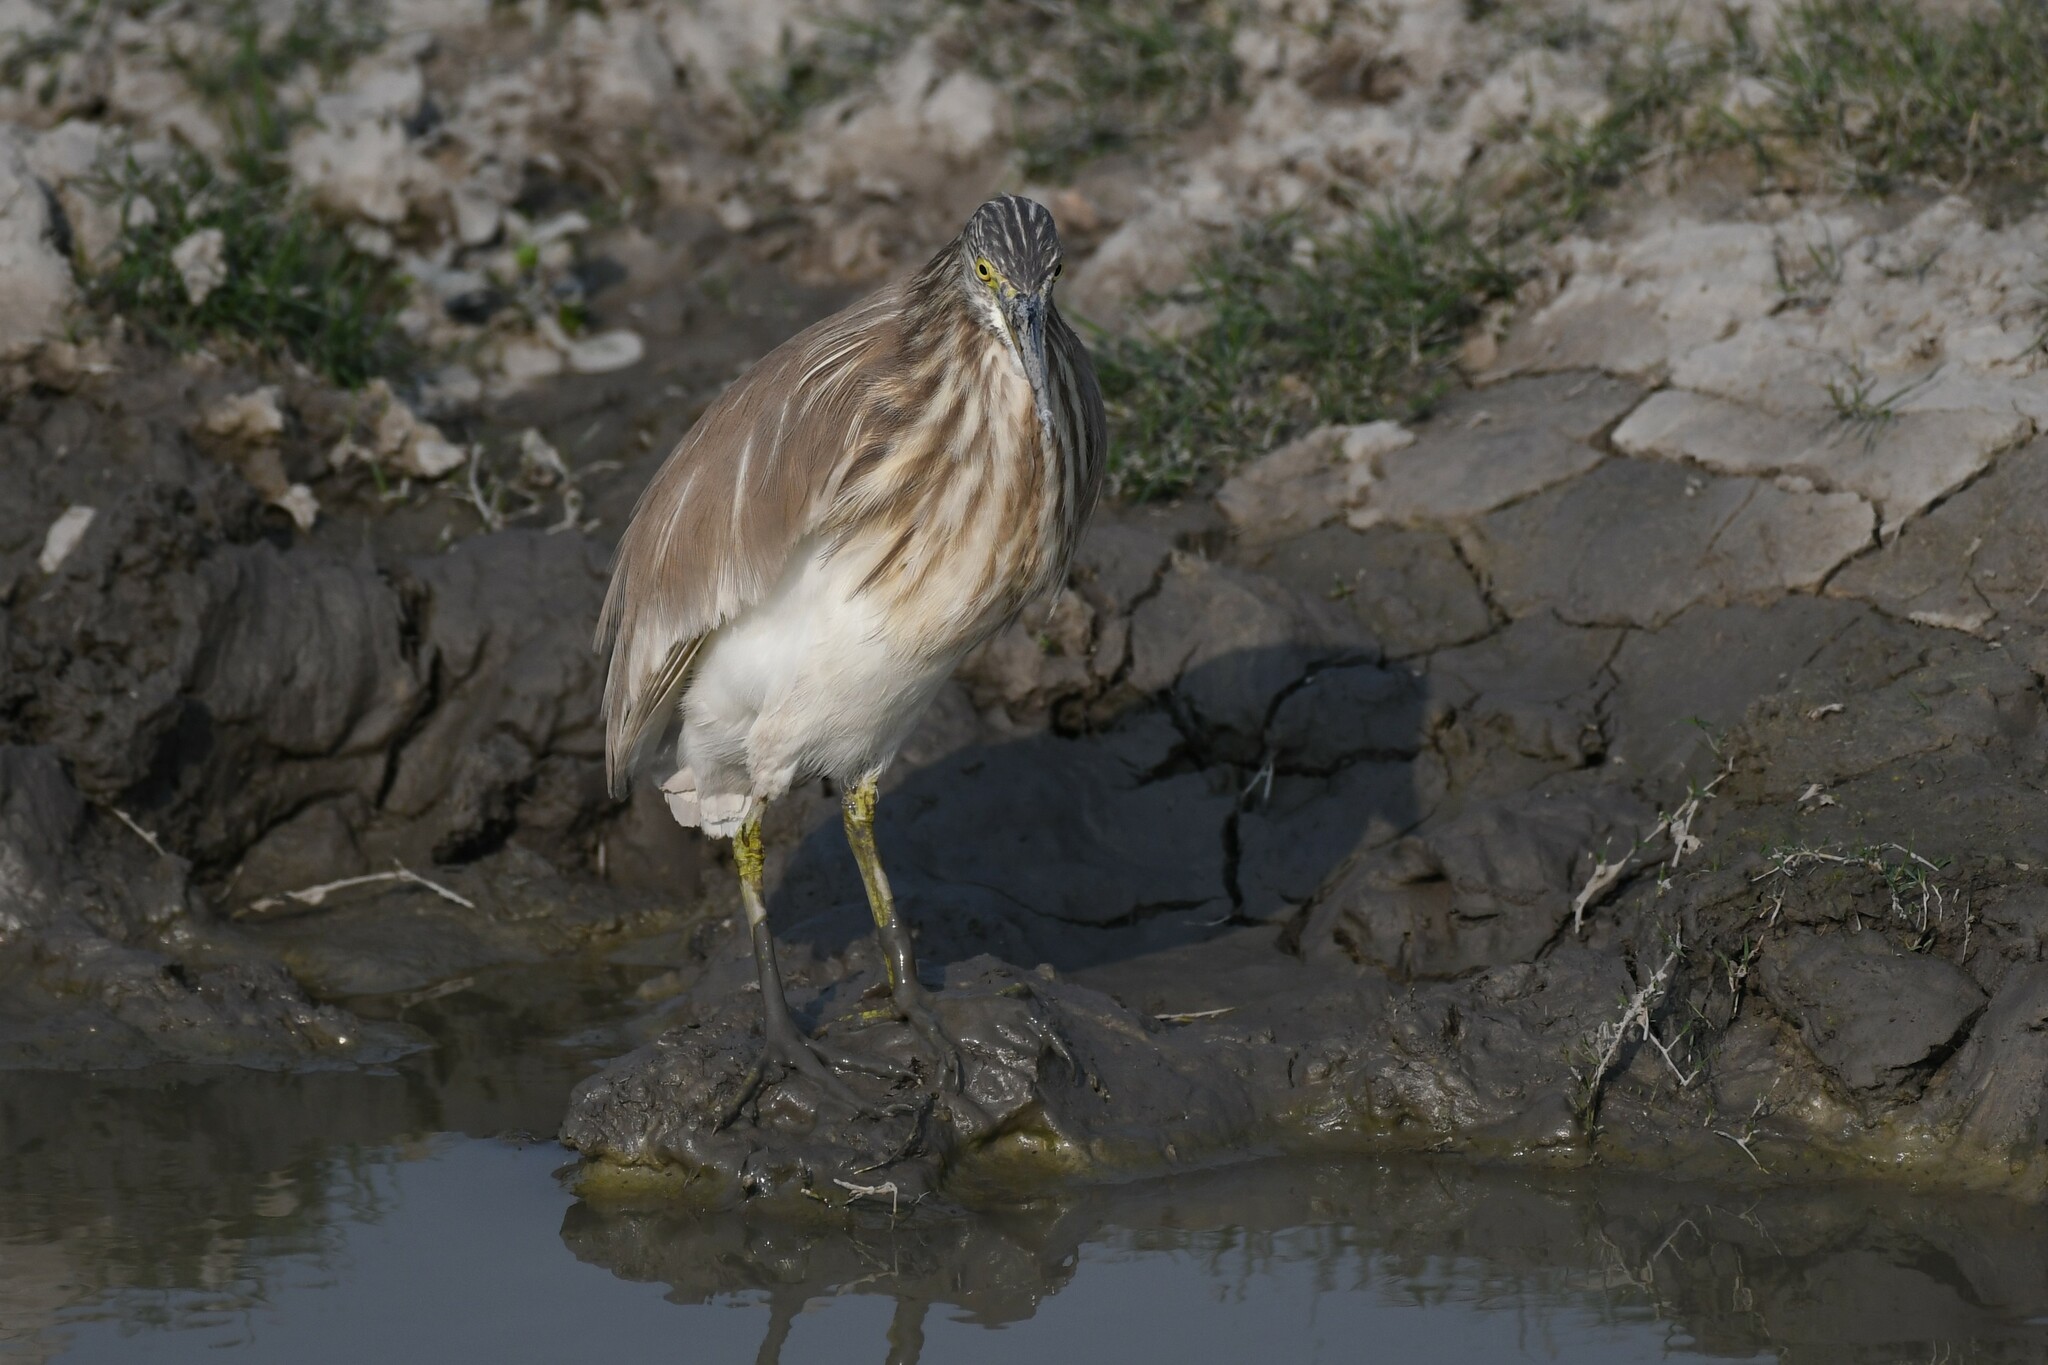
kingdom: Animalia
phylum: Chordata
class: Aves
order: Pelecaniformes
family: Ardeidae
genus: Ardeola
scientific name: Ardeola grayii
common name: Indian pond heron
